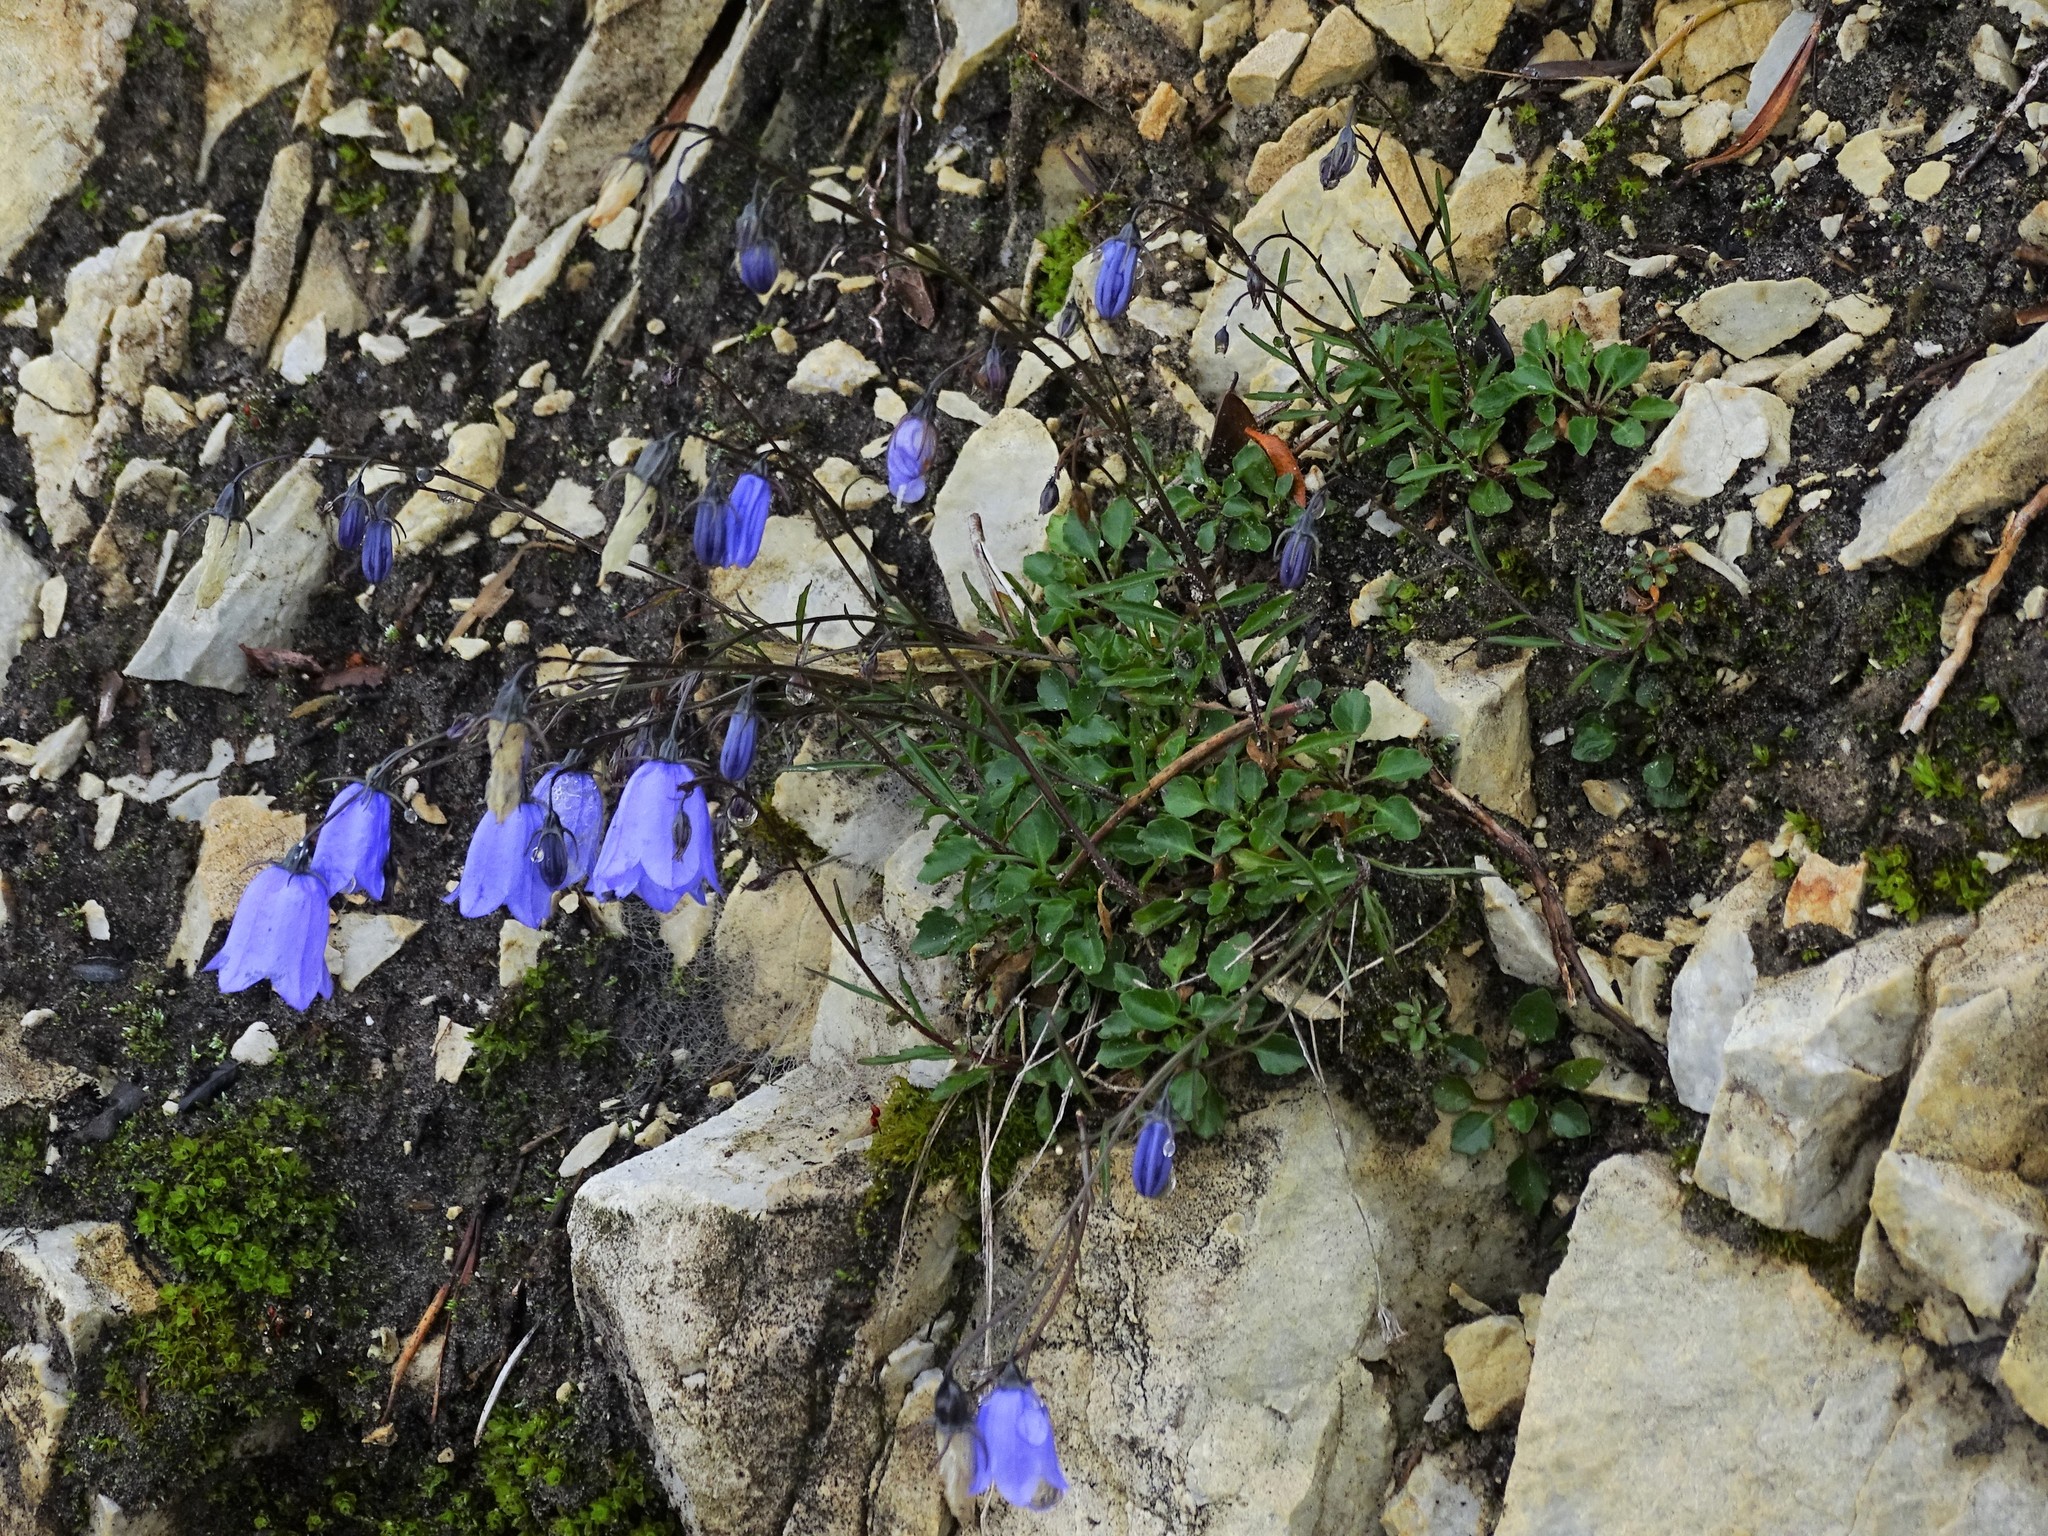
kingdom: Plantae
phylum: Tracheophyta
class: Magnoliopsida
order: Asterales
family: Campanulaceae
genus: Campanula
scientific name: Campanula cochleariifolia
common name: Fairies'-thimbles
